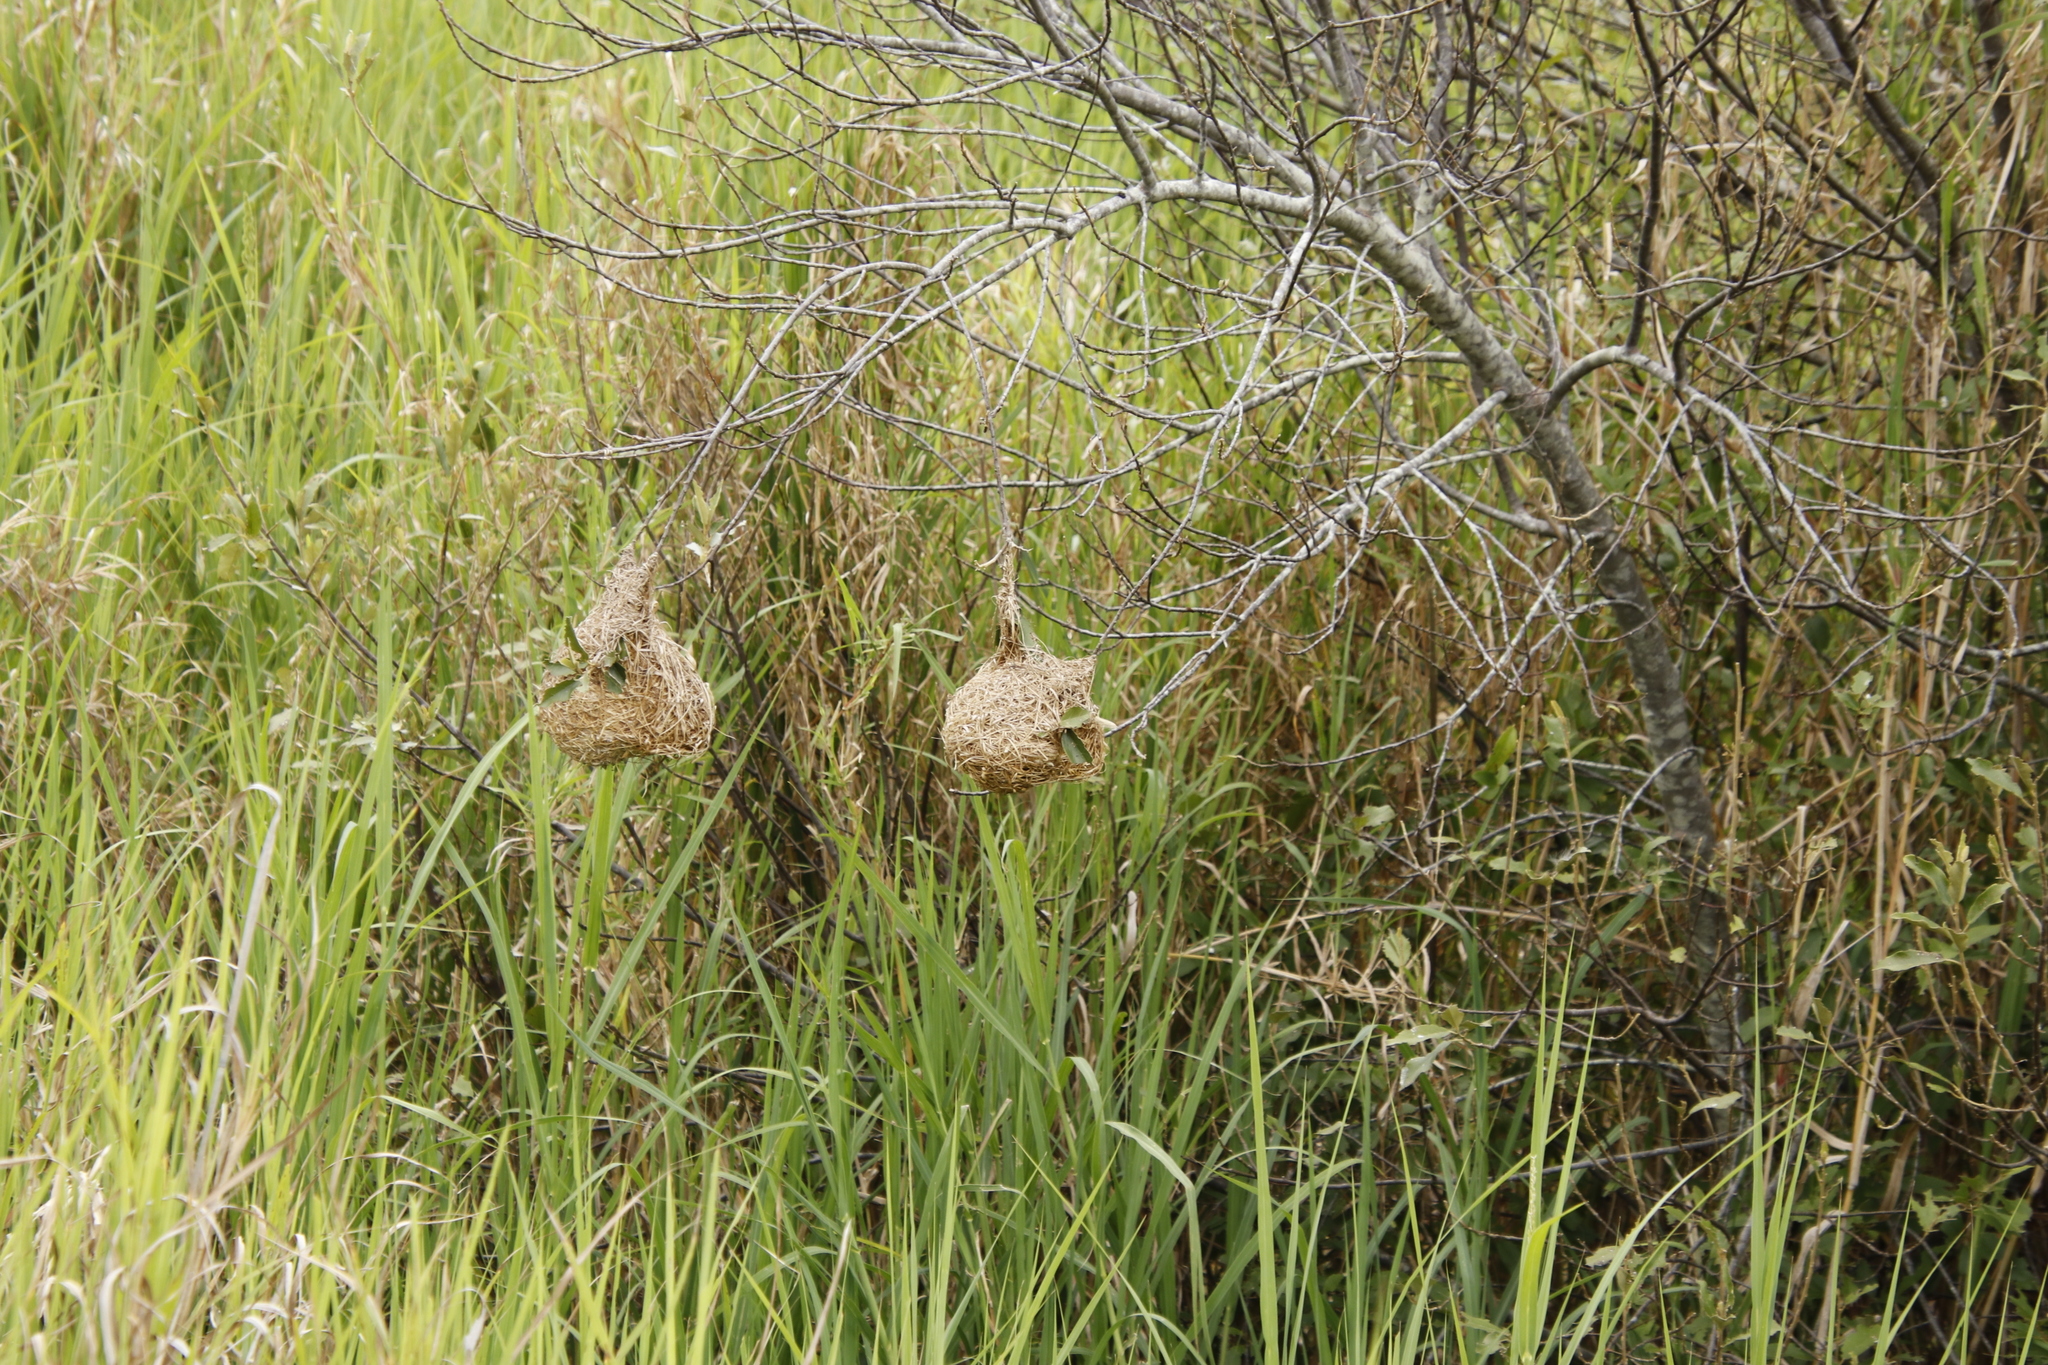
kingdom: Animalia
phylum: Chordata
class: Aves
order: Passeriformes
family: Ploceidae
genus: Ploceus
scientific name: Ploceus capensis
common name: Cape weaver
